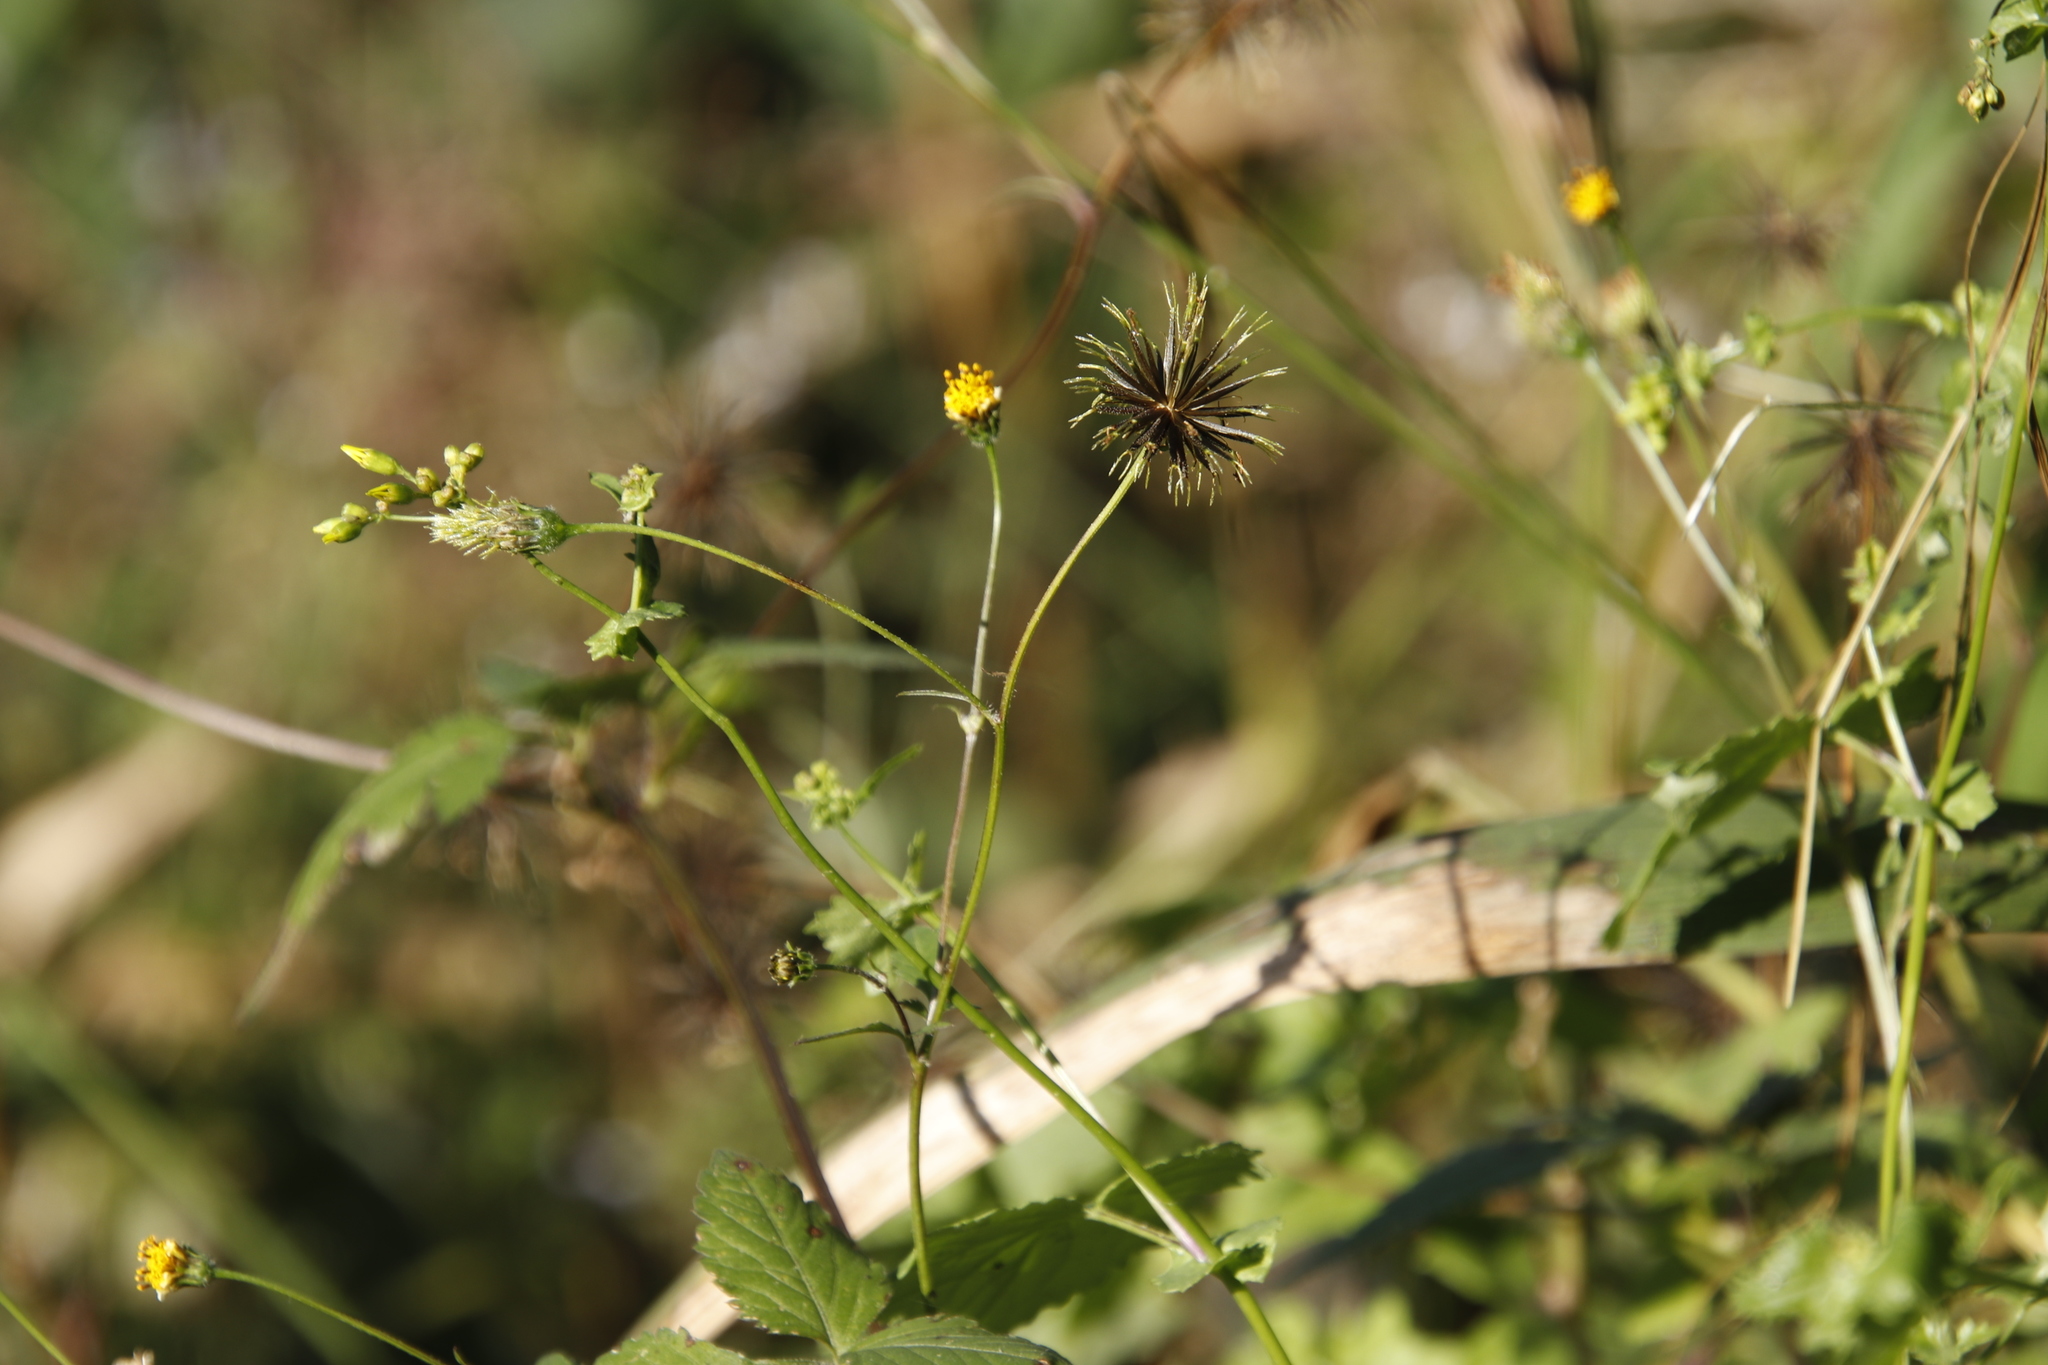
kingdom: Plantae
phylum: Tracheophyta
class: Magnoliopsida
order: Asterales
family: Asteraceae
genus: Bidens
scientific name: Bidens pilosa
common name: Black-jack
